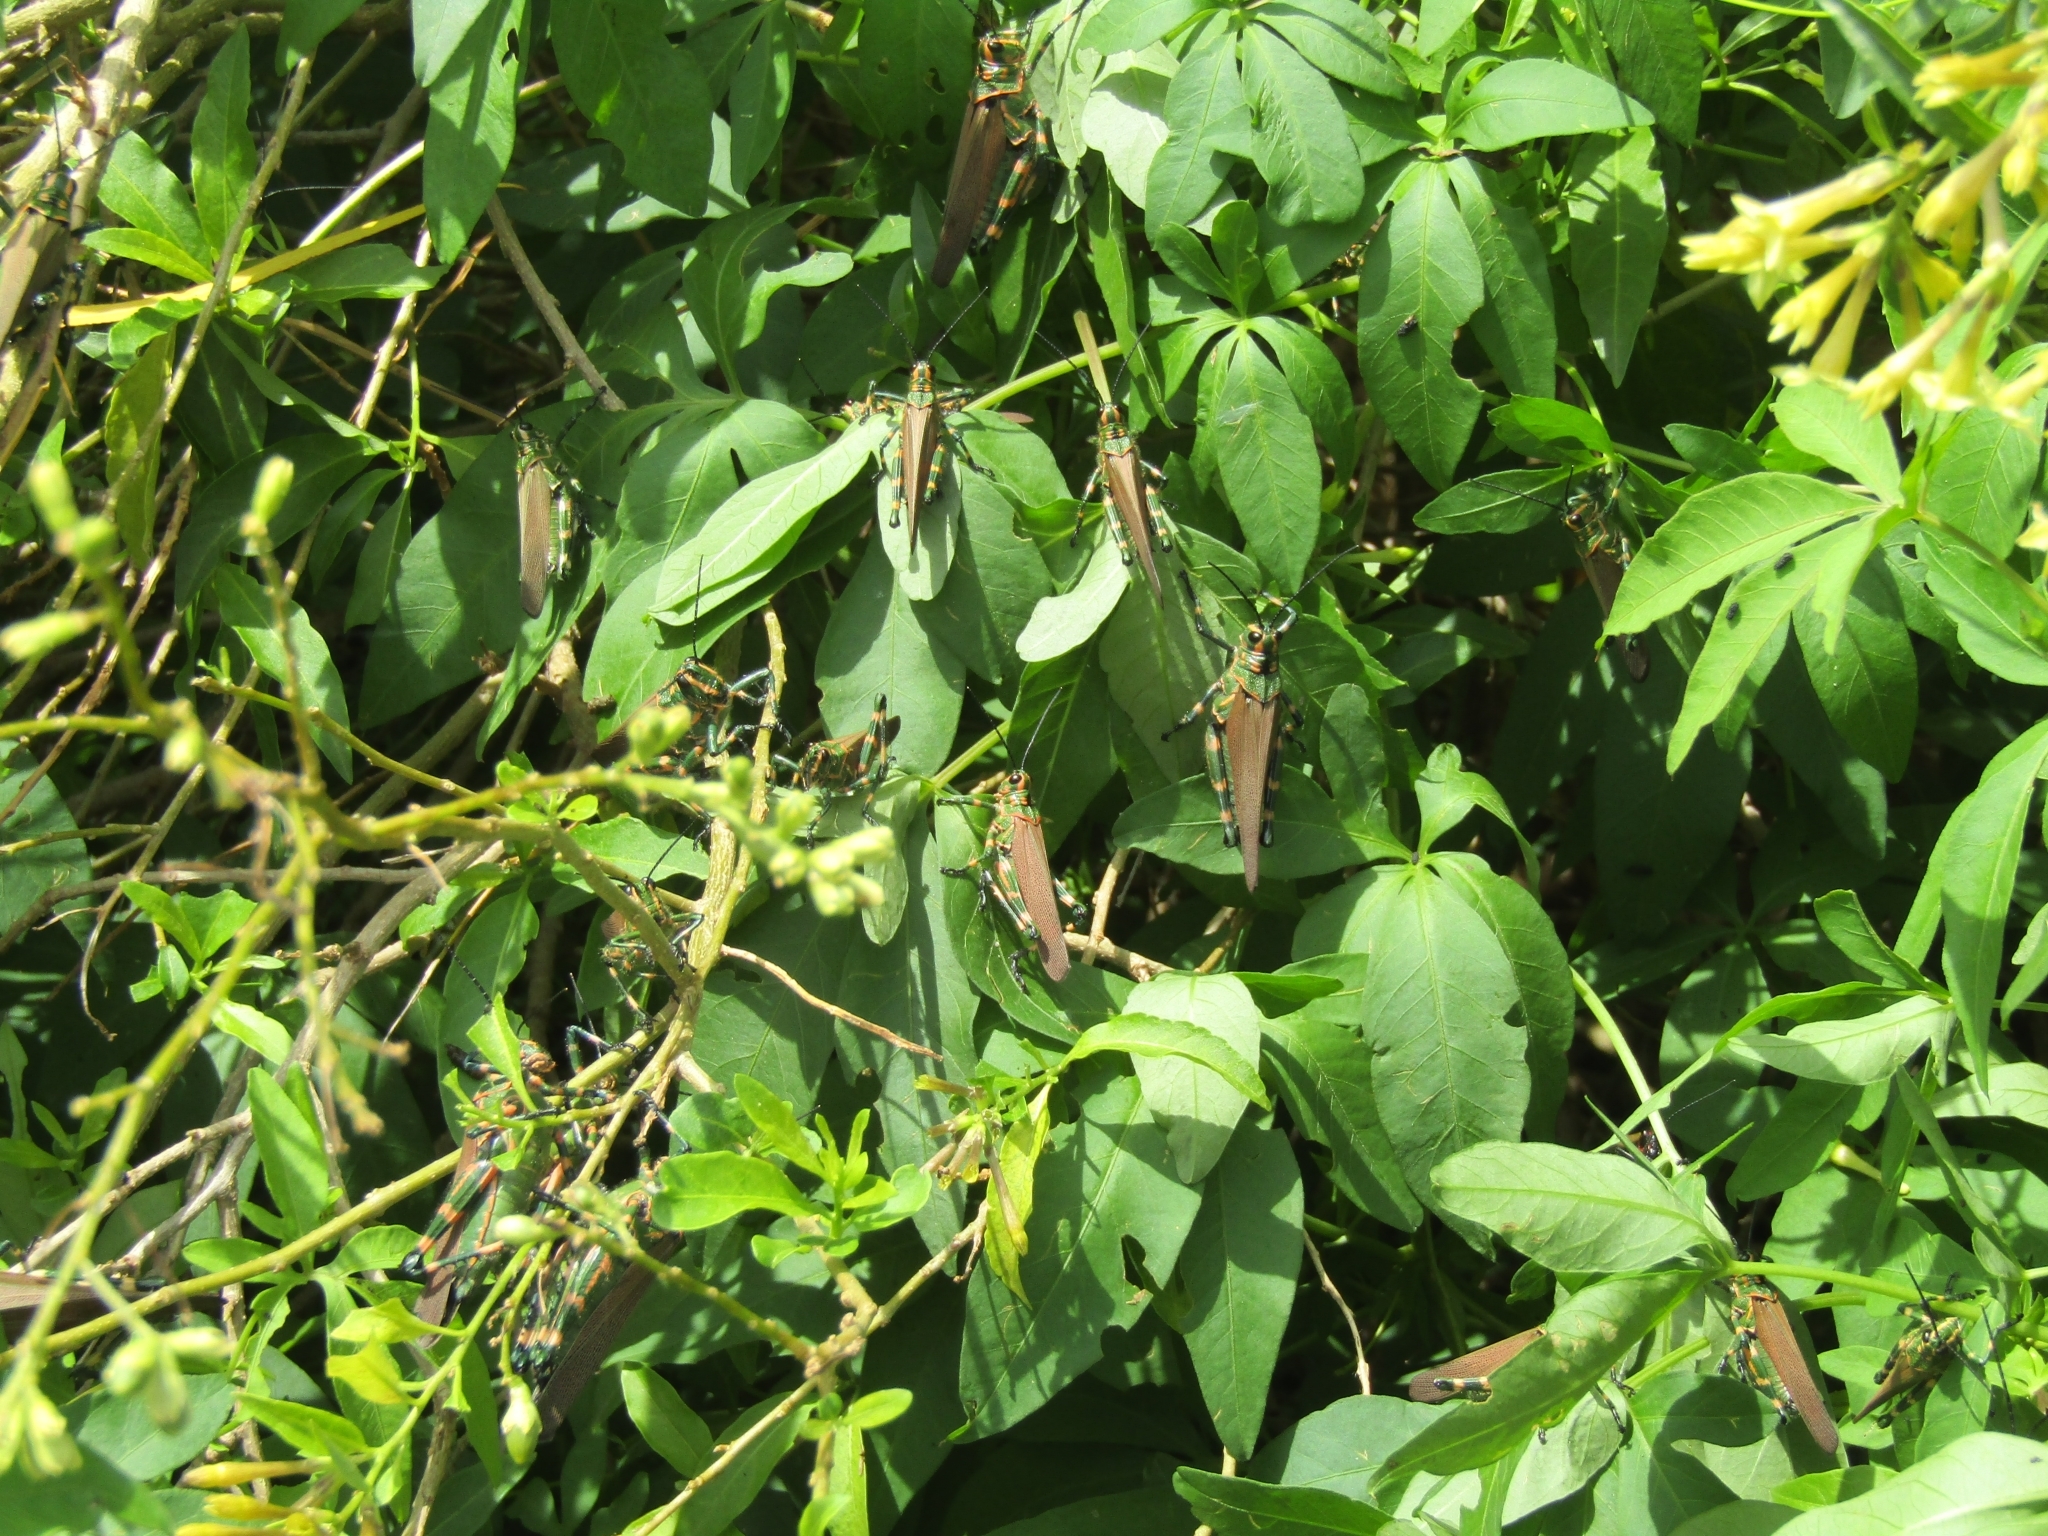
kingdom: Animalia
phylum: Arthropoda
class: Insecta
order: Orthoptera
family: Romaleidae
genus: Chromacris
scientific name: Chromacris speciosa
